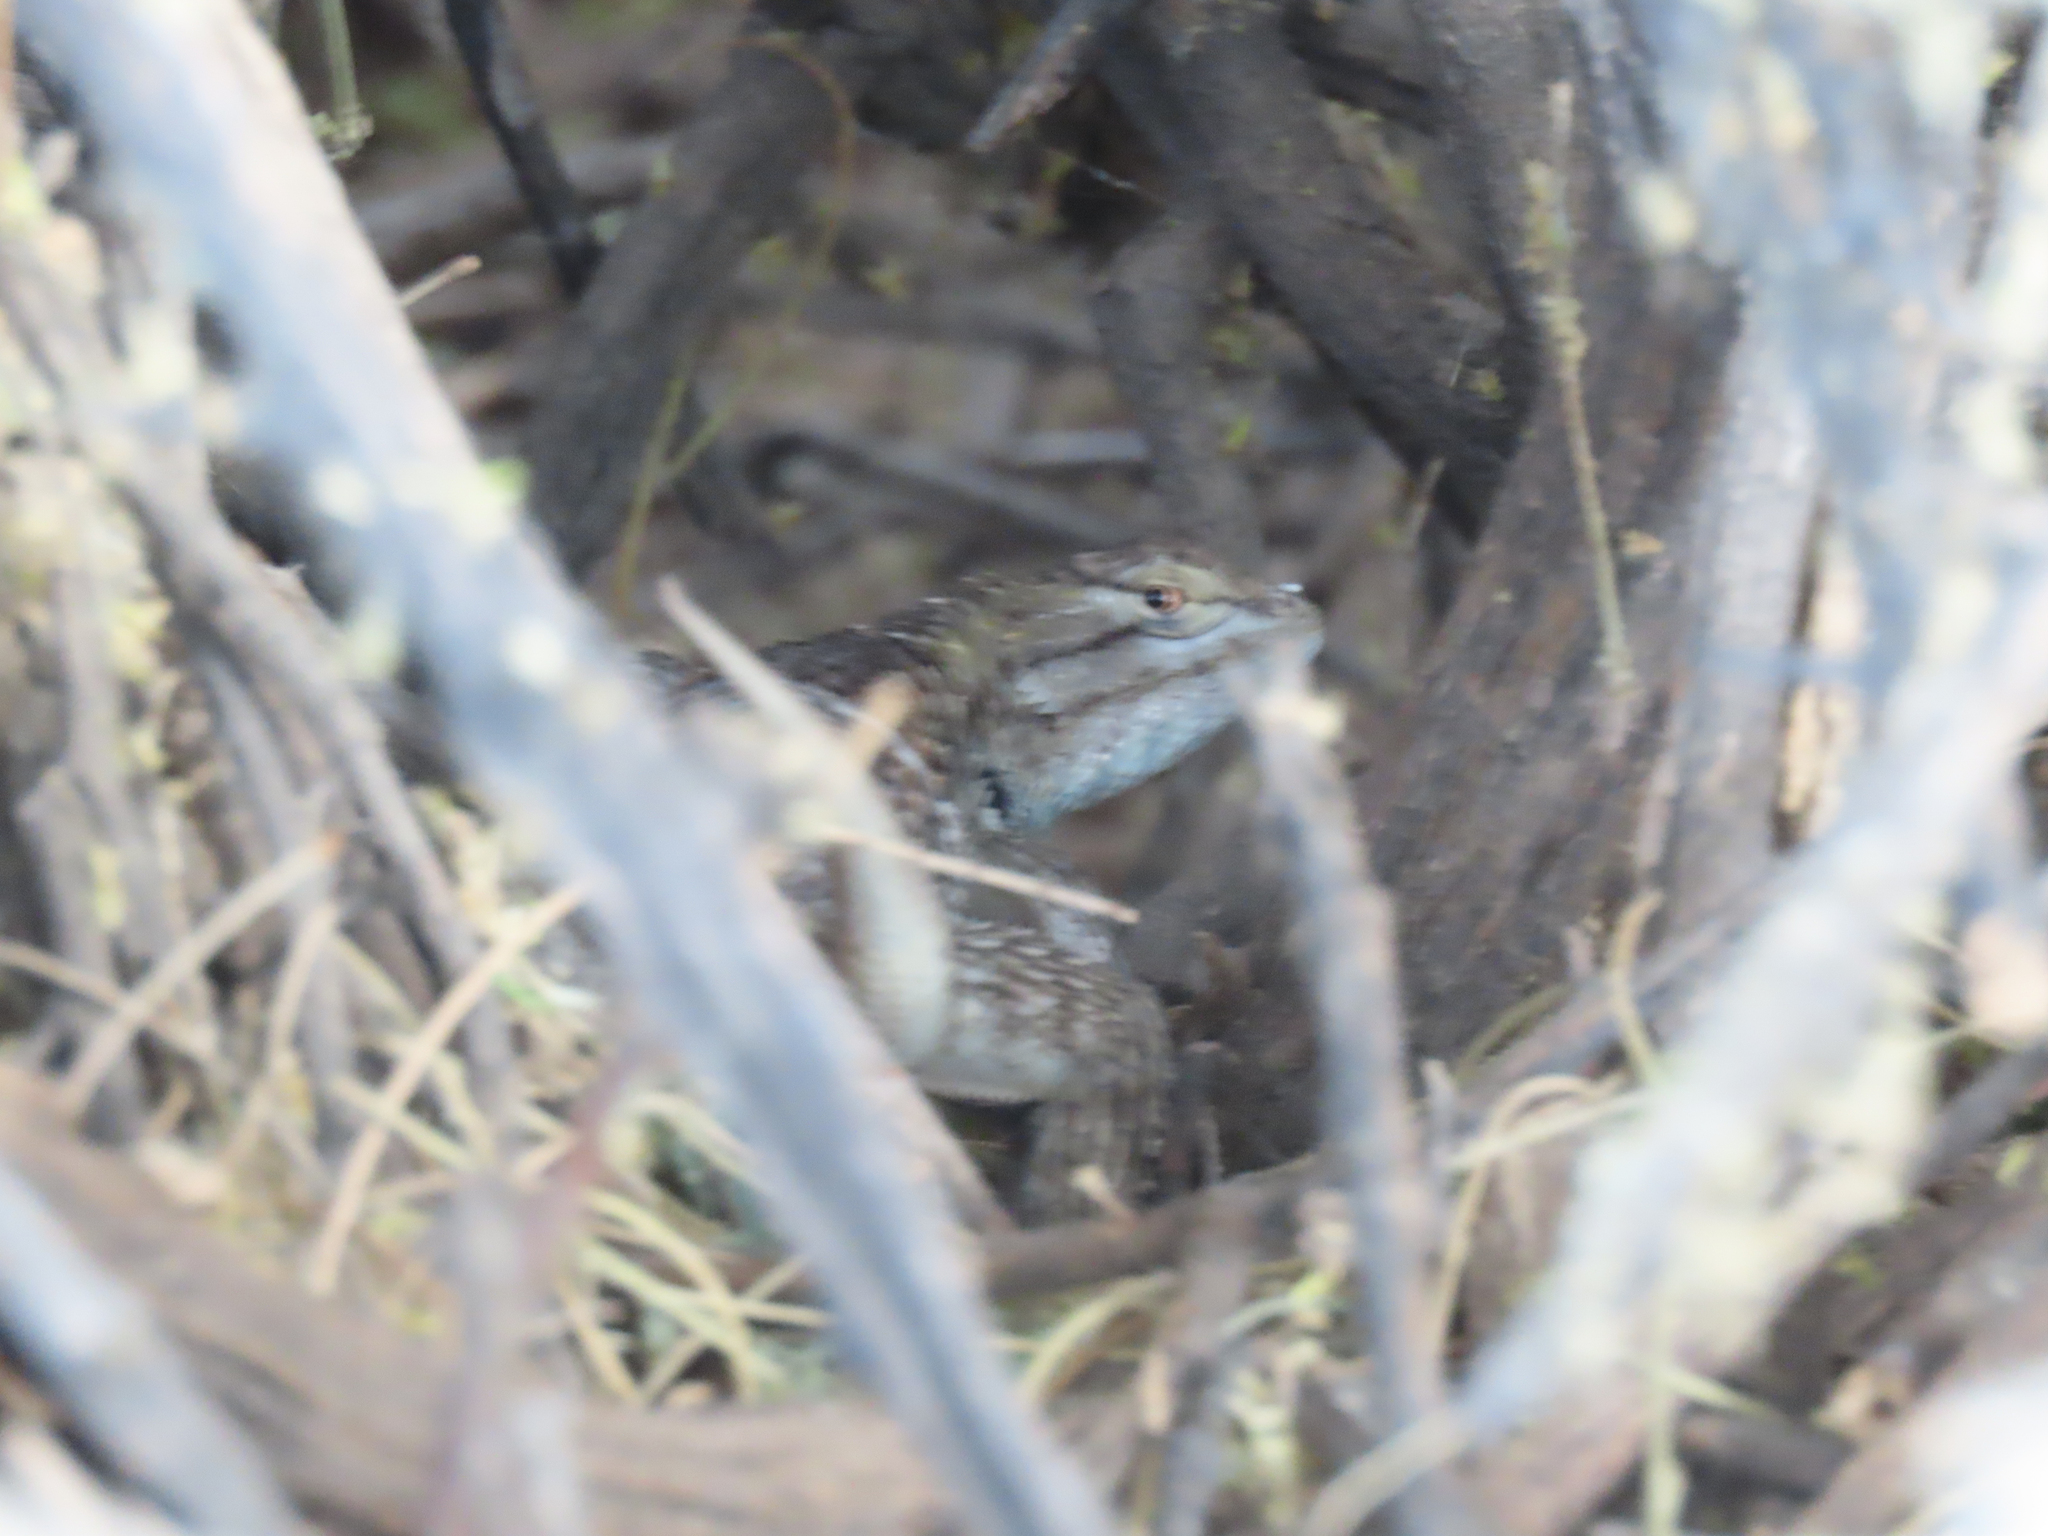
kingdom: Animalia
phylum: Chordata
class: Squamata
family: Phrynosomatidae
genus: Sceloporus
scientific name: Sceloporus magister
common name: Desert spiny lizard
